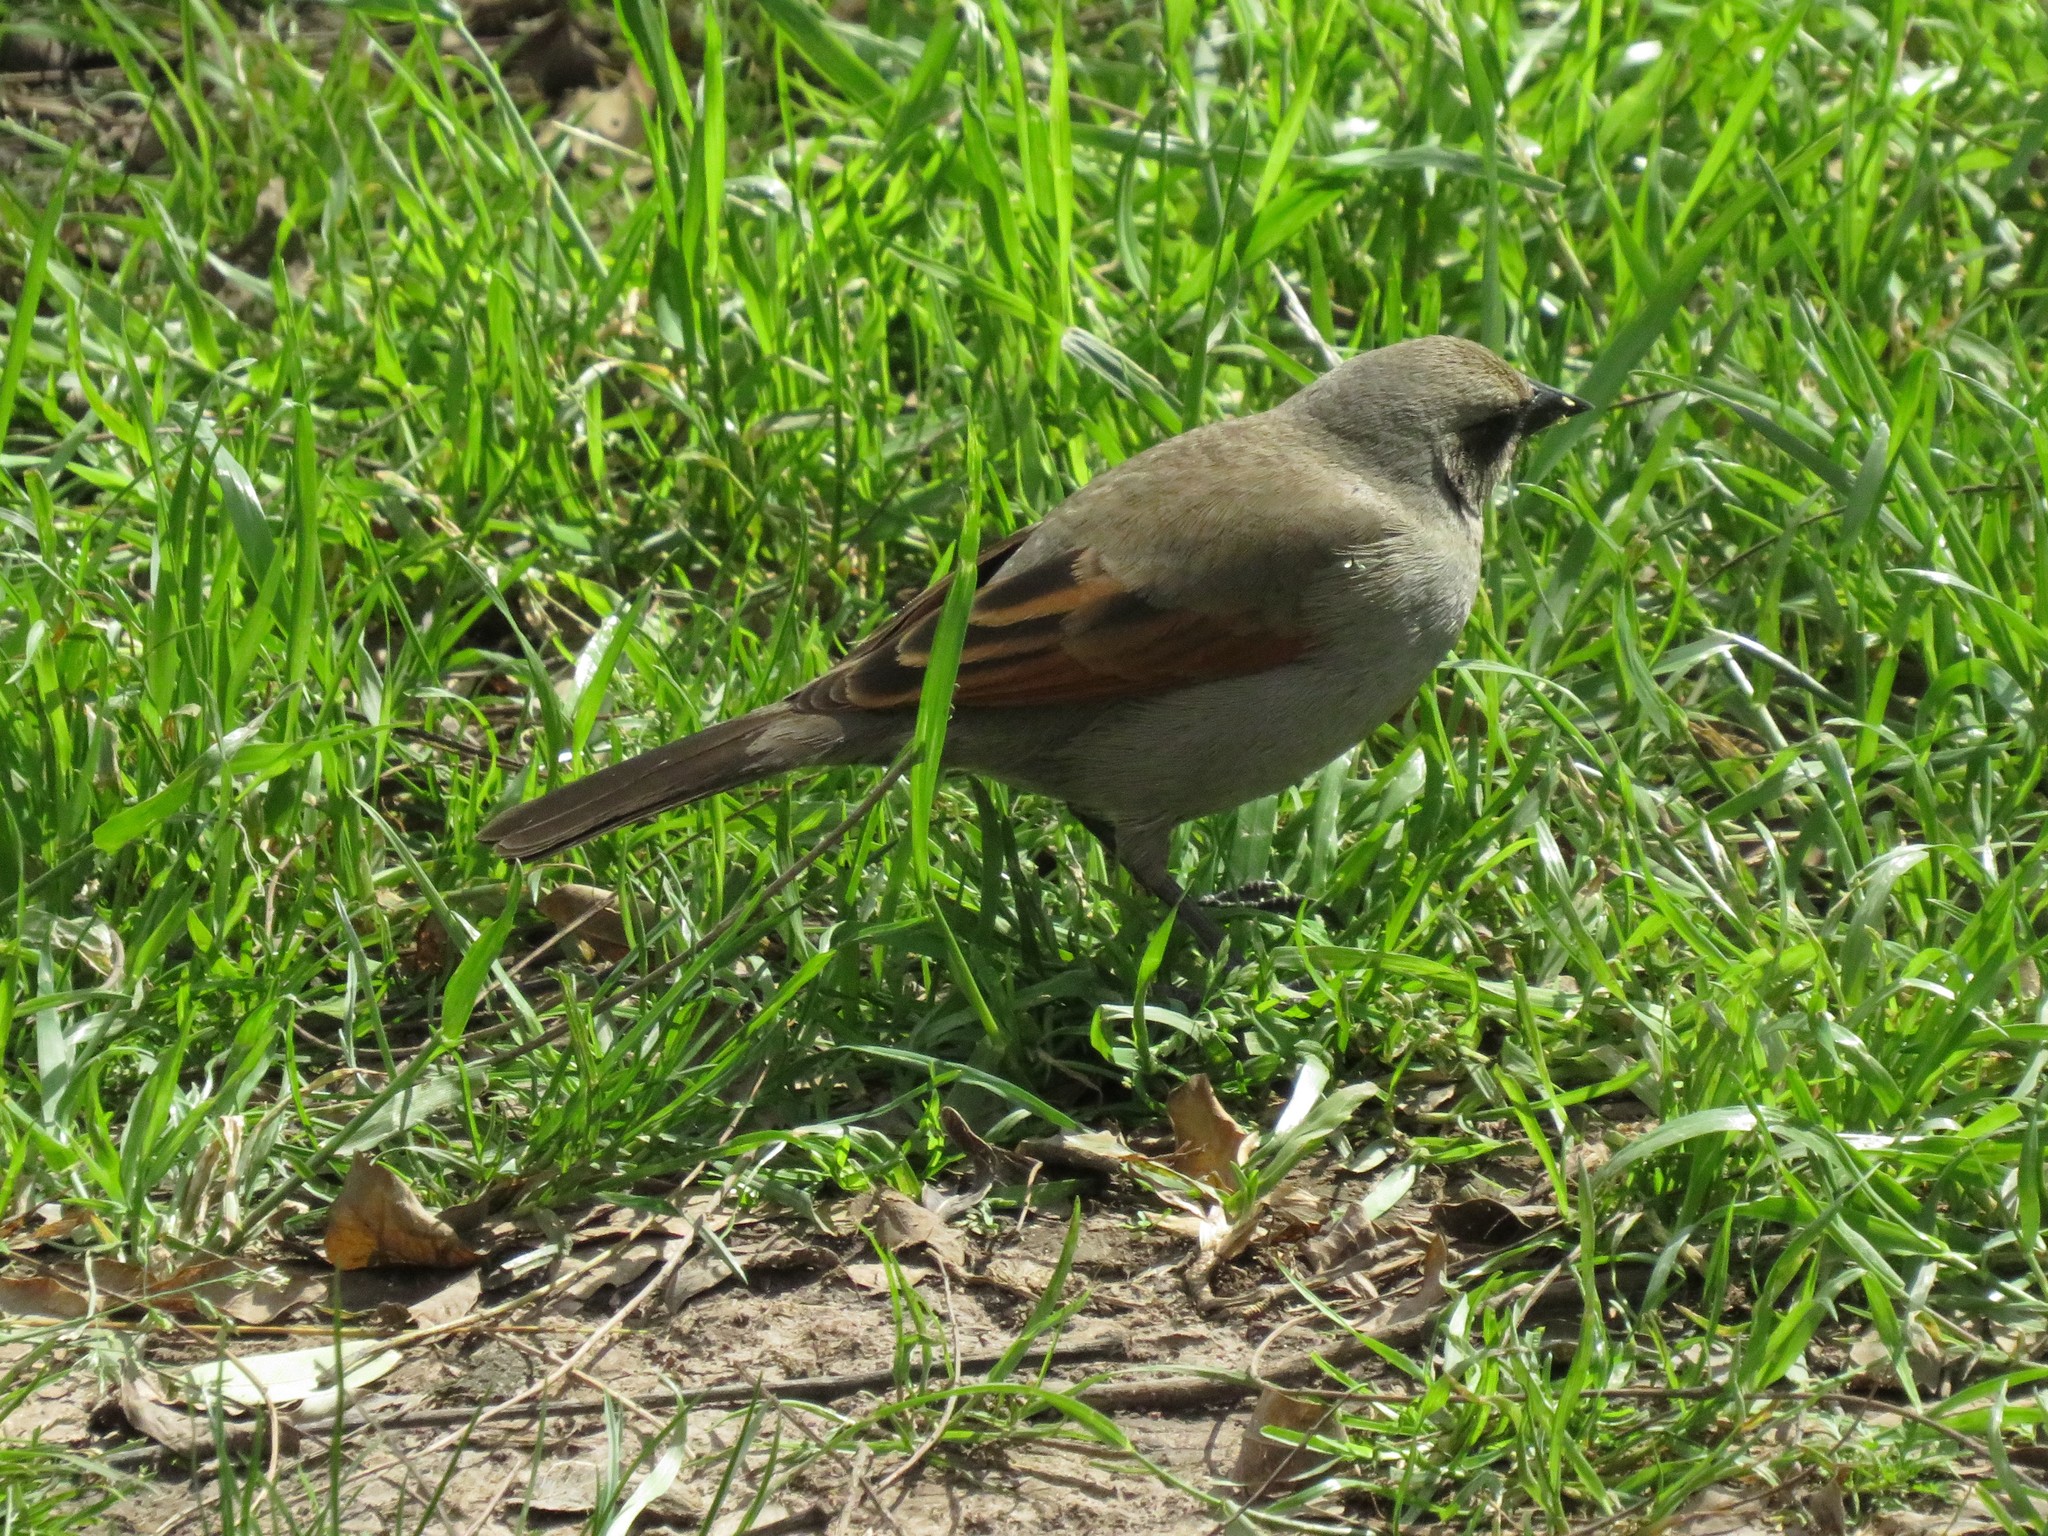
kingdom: Animalia
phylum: Chordata
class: Aves
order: Passeriformes
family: Icteridae
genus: Agelaioides
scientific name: Agelaioides badius
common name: Baywing
